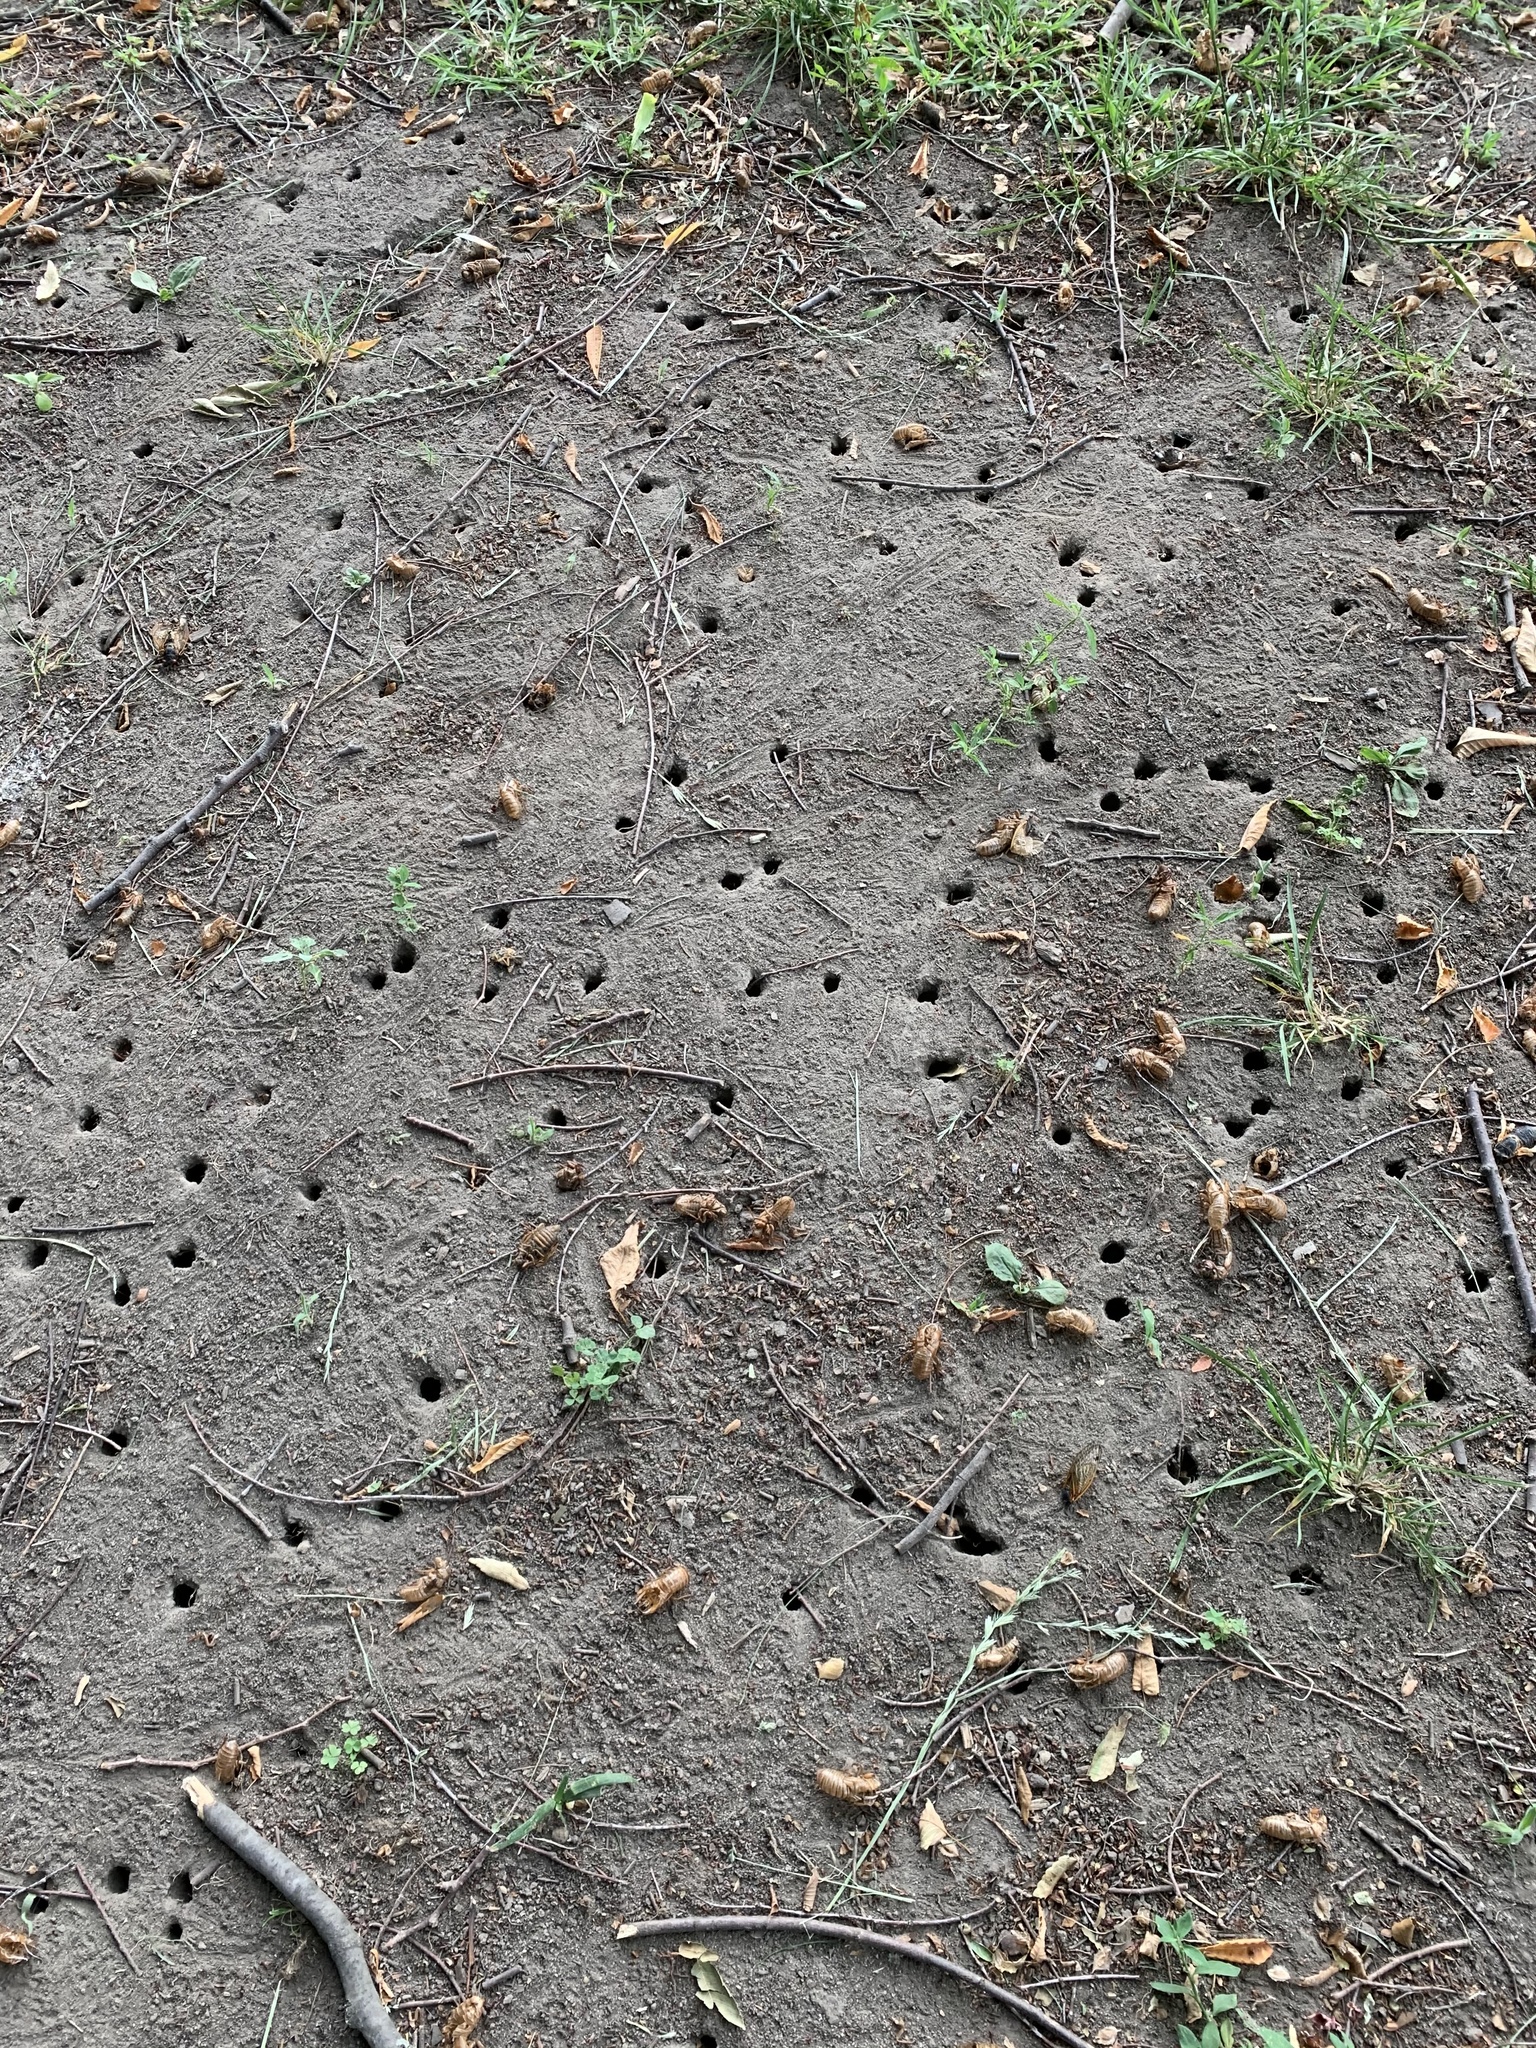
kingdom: Animalia
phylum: Arthropoda
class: Insecta
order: Hemiptera
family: Cicadidae
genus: Magicicada
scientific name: Magicicada
